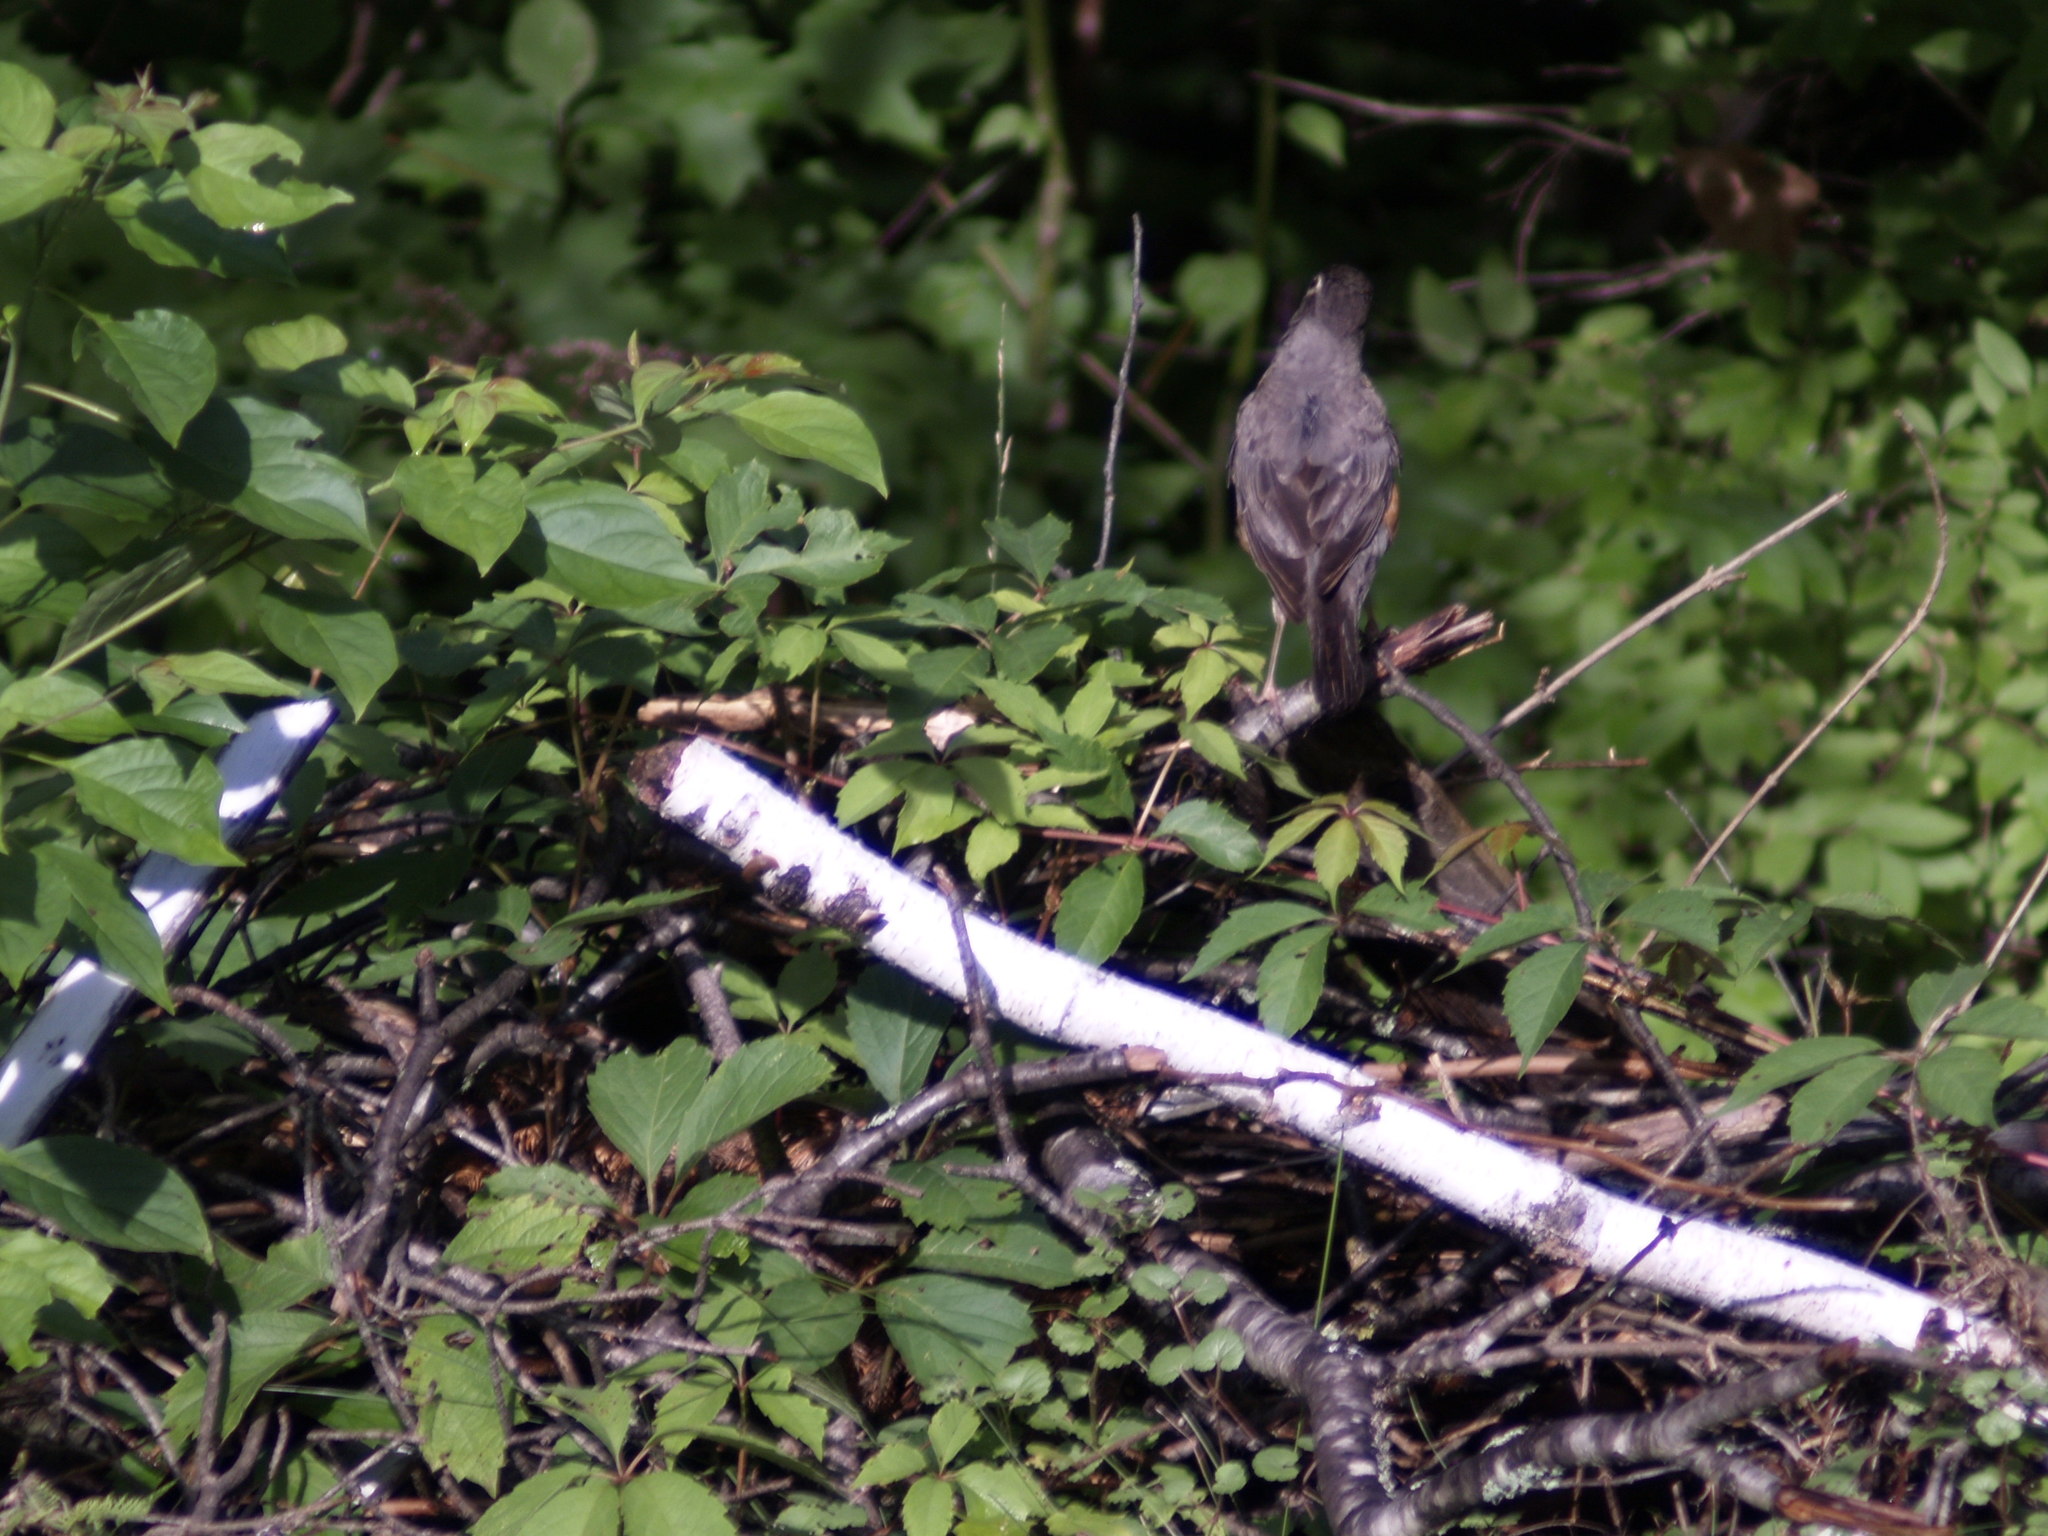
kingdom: Animalia
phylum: Chordata
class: Aves
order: Passeriformes
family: Turdidae
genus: Turdus
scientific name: Turdus migratorius
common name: American robin
